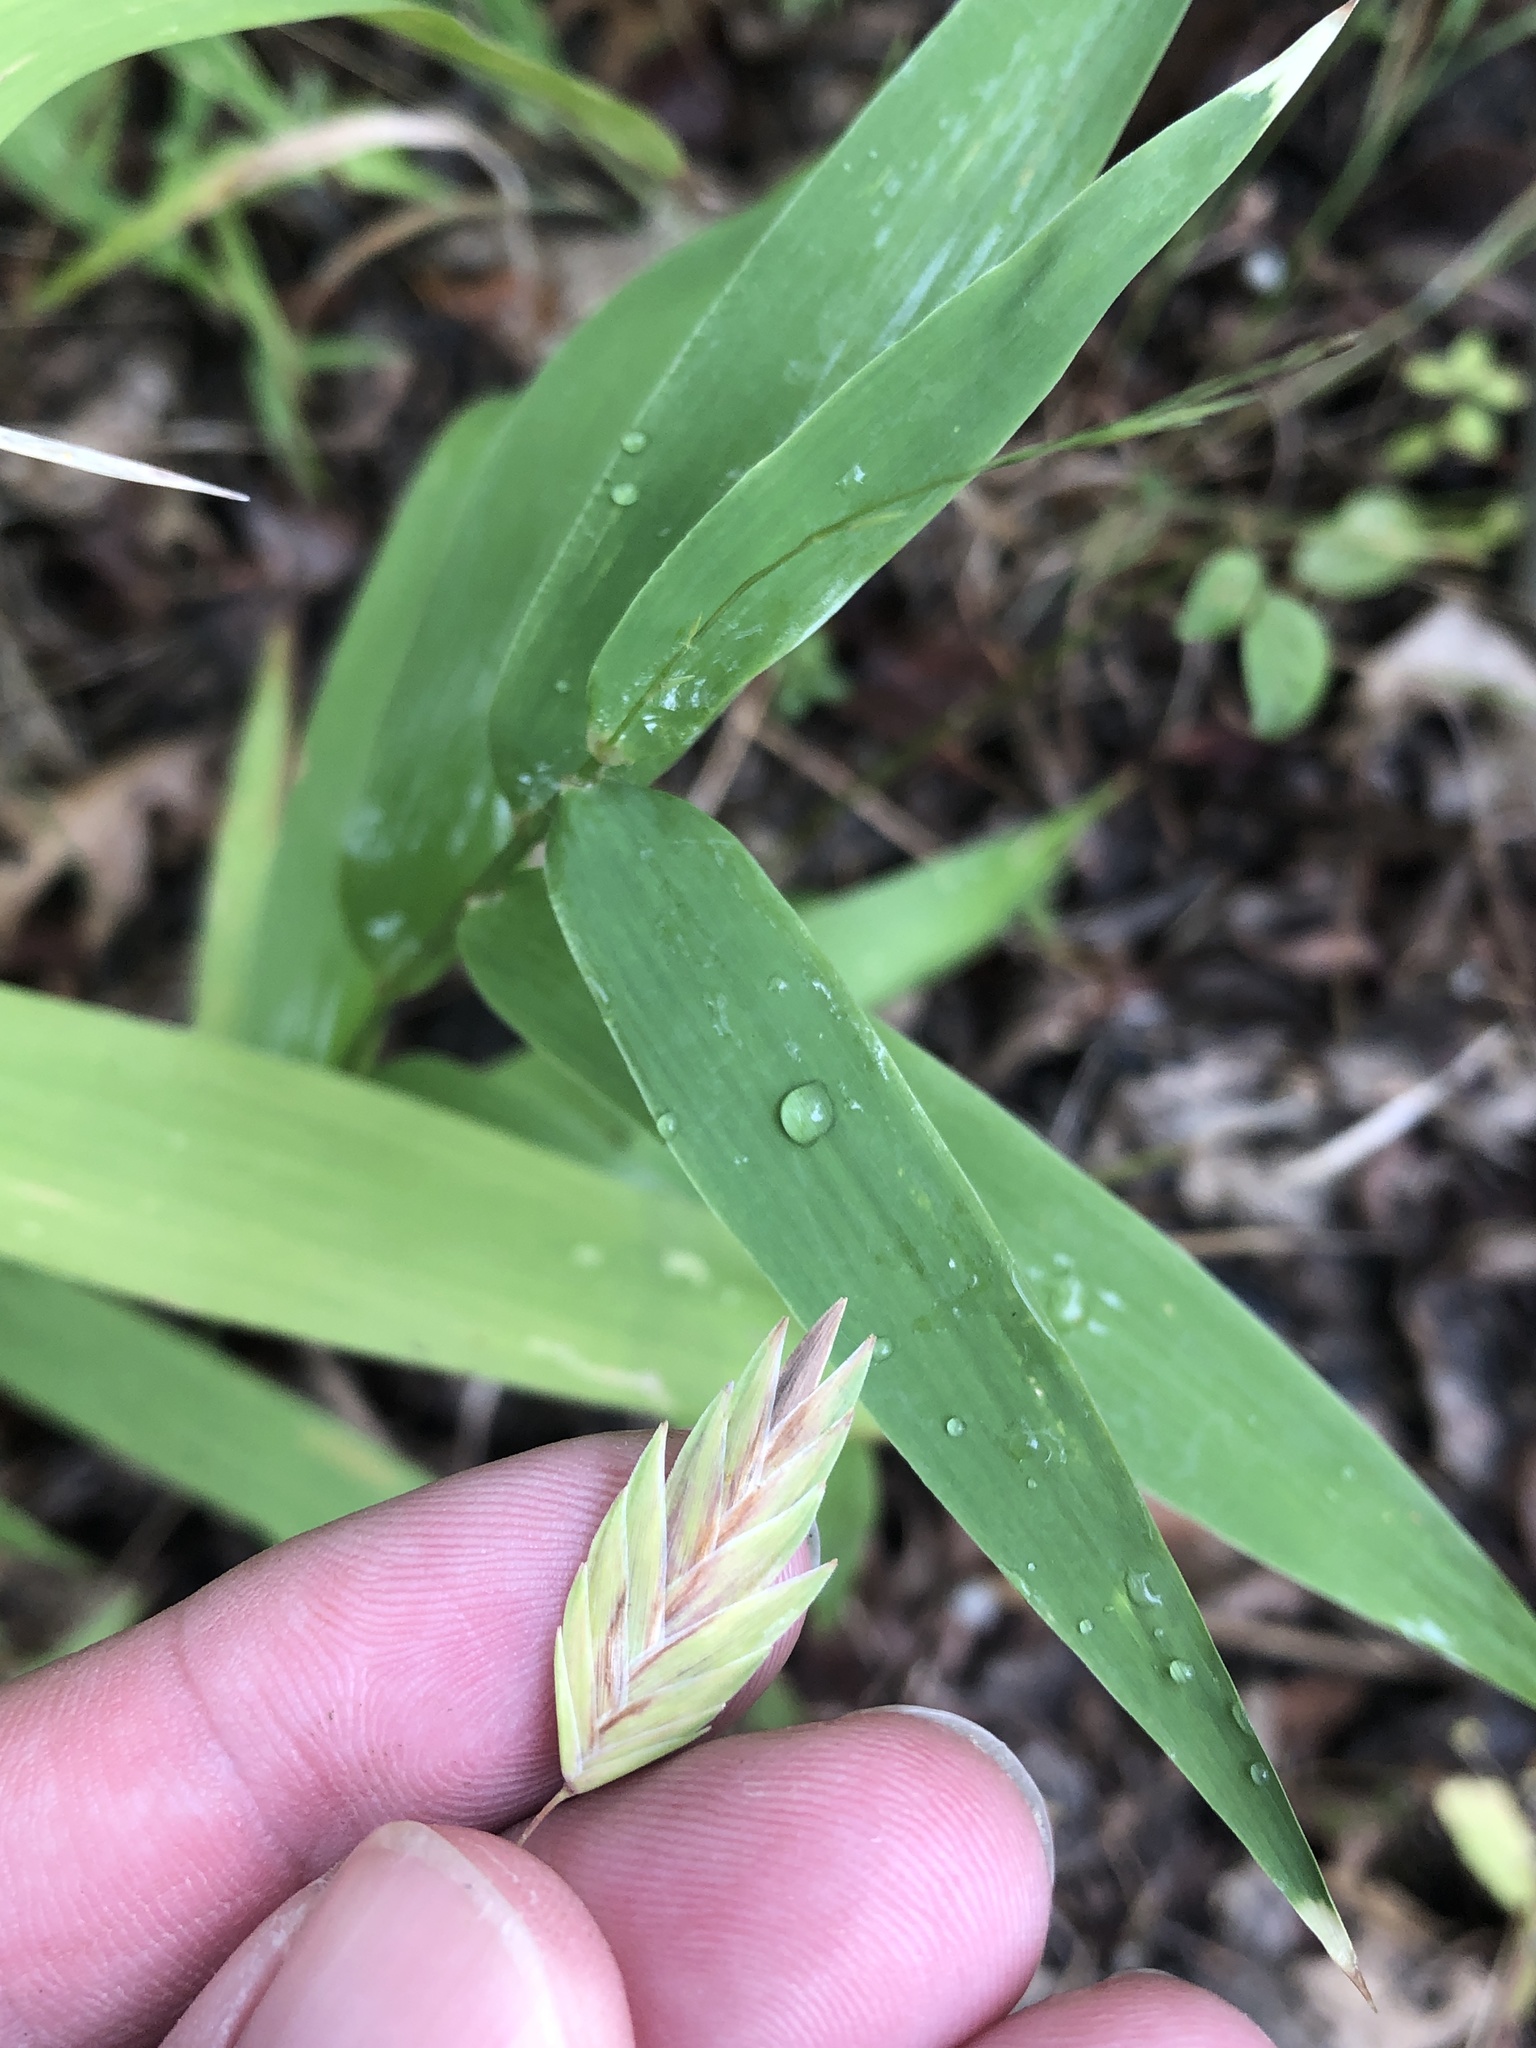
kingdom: Plantae
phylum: Tracheophyta
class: Liliopsida
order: Poales
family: Poaceae
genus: Chasmanthium
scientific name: Chasmanthium latifolium
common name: Broad-leaved chasmanthium
